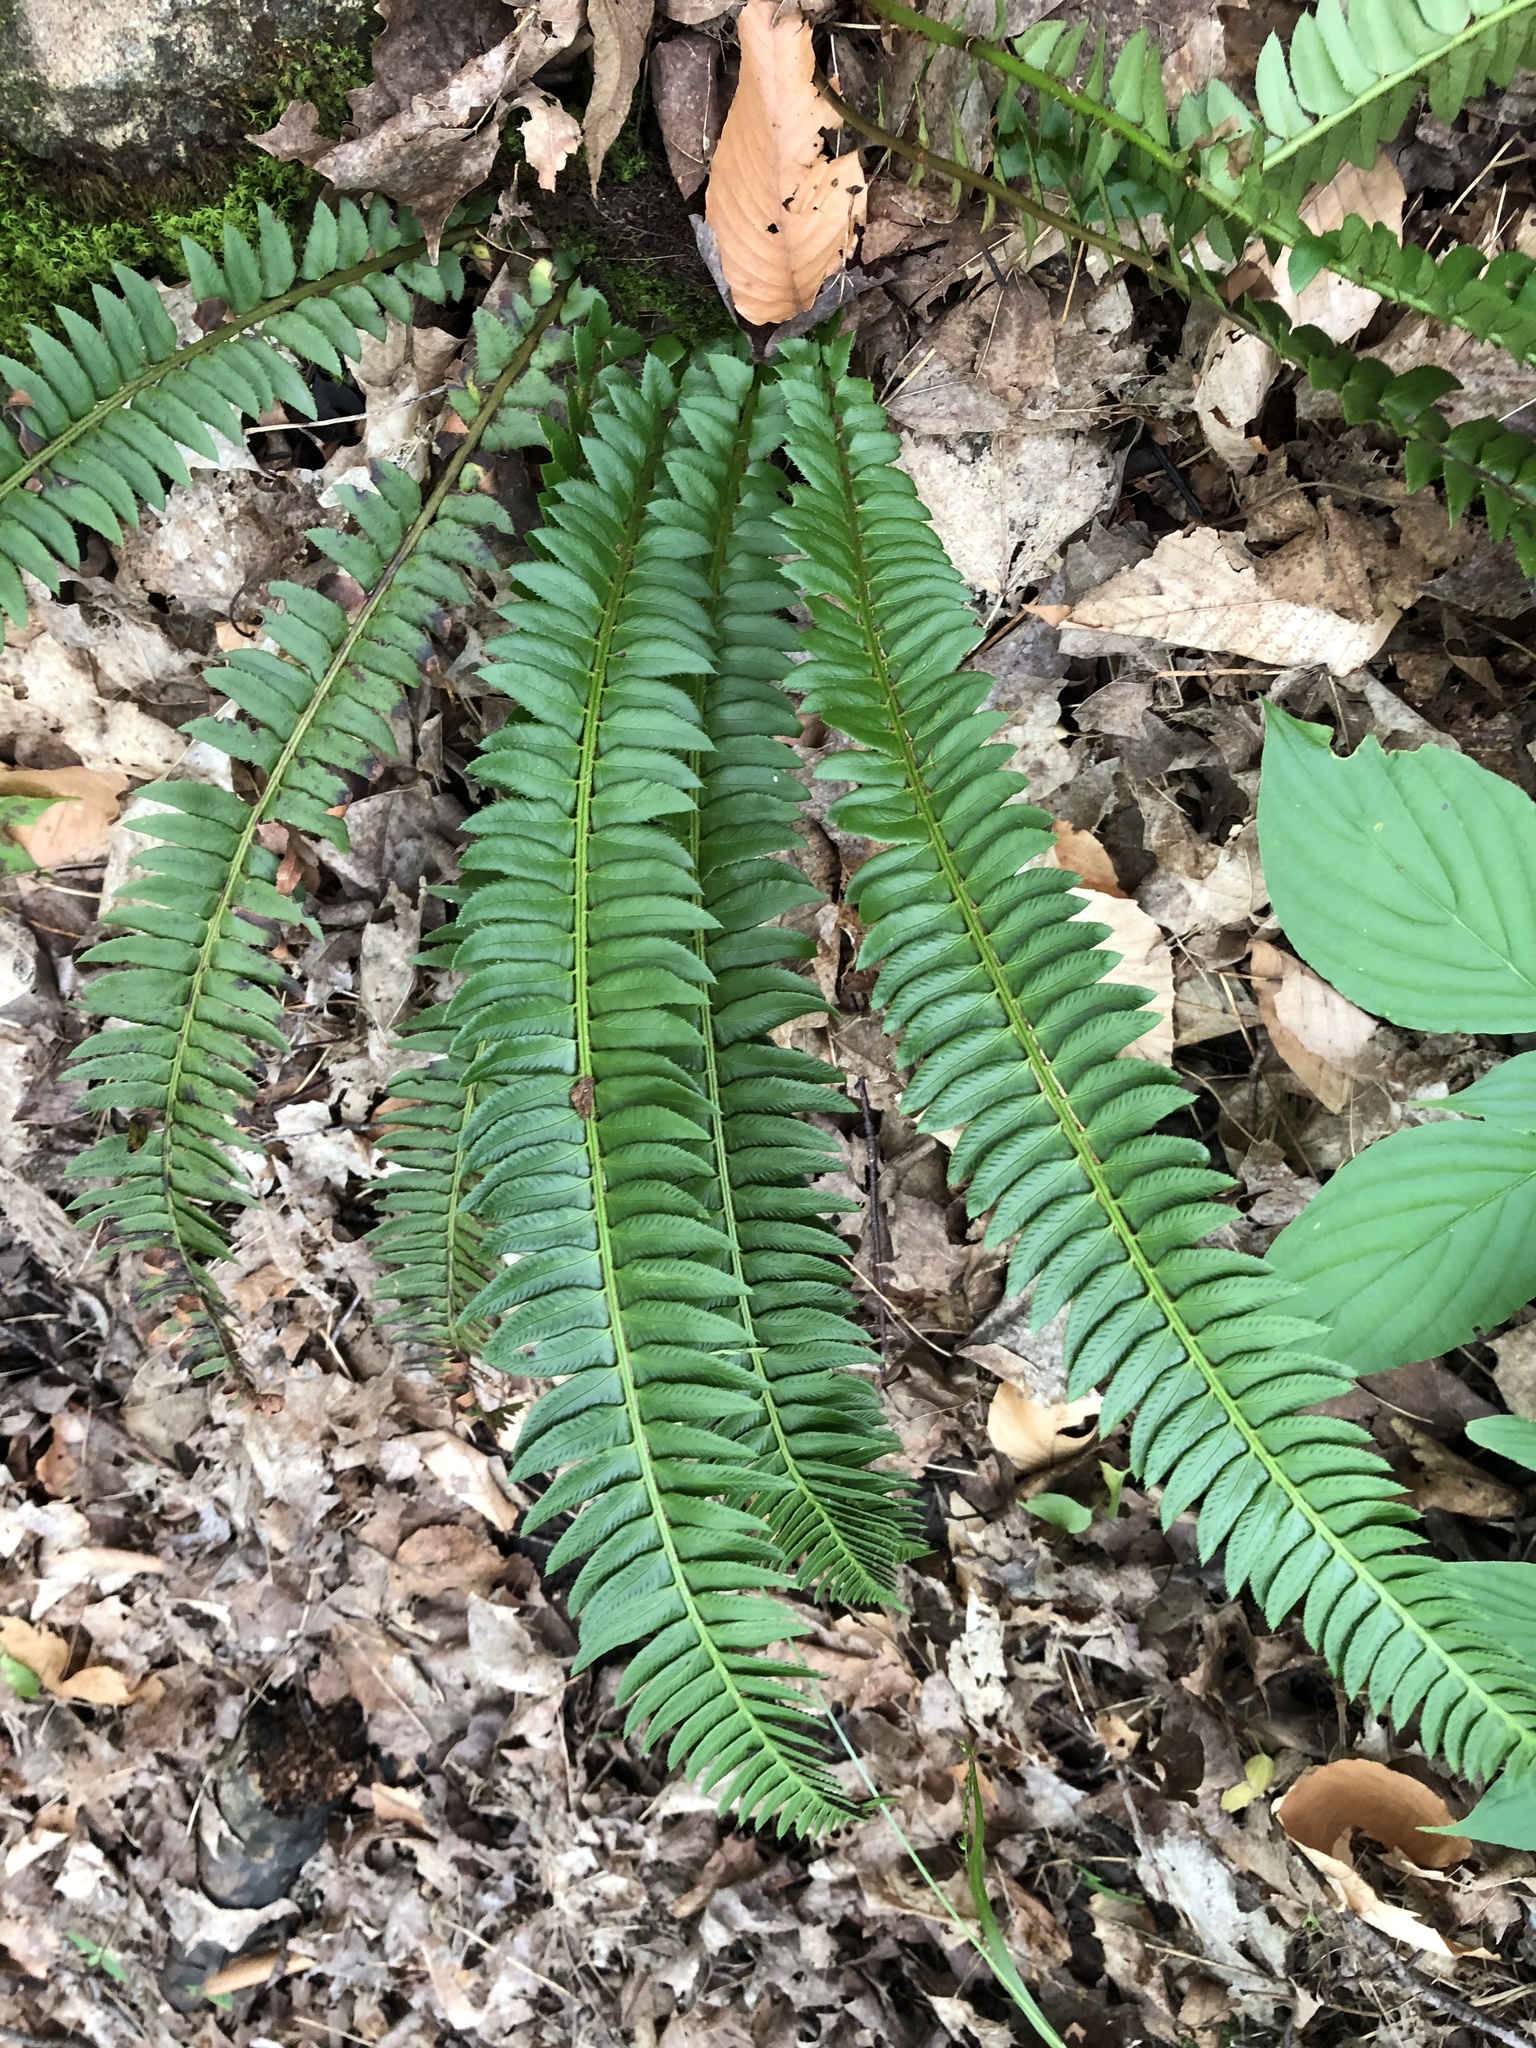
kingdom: Plantae
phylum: Tracheophyta
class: Polypodiopsida
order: Polypodiales
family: Dryopteridaceae
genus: Polystichum
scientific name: Polystichum lonchitis
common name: Holly fern
